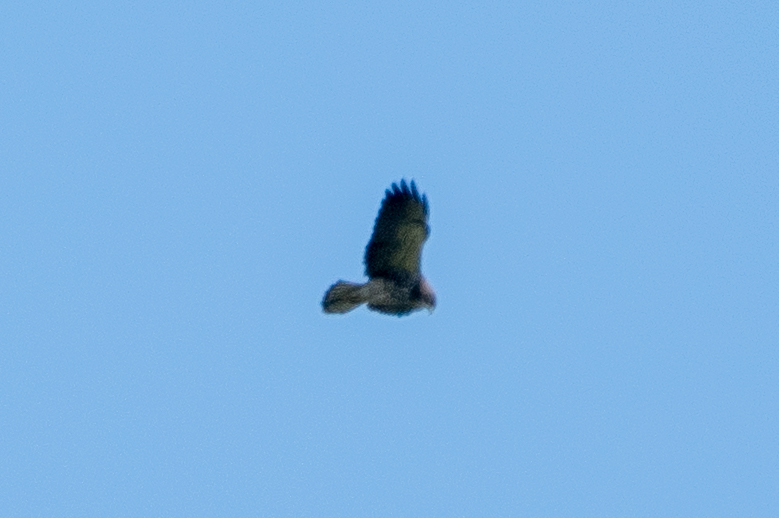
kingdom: Animalia
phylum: Chordata
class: Aves
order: Accipitriformes
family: Accipitridae
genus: Buteo
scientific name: Buteo swainsoni
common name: Swainson's hawk
